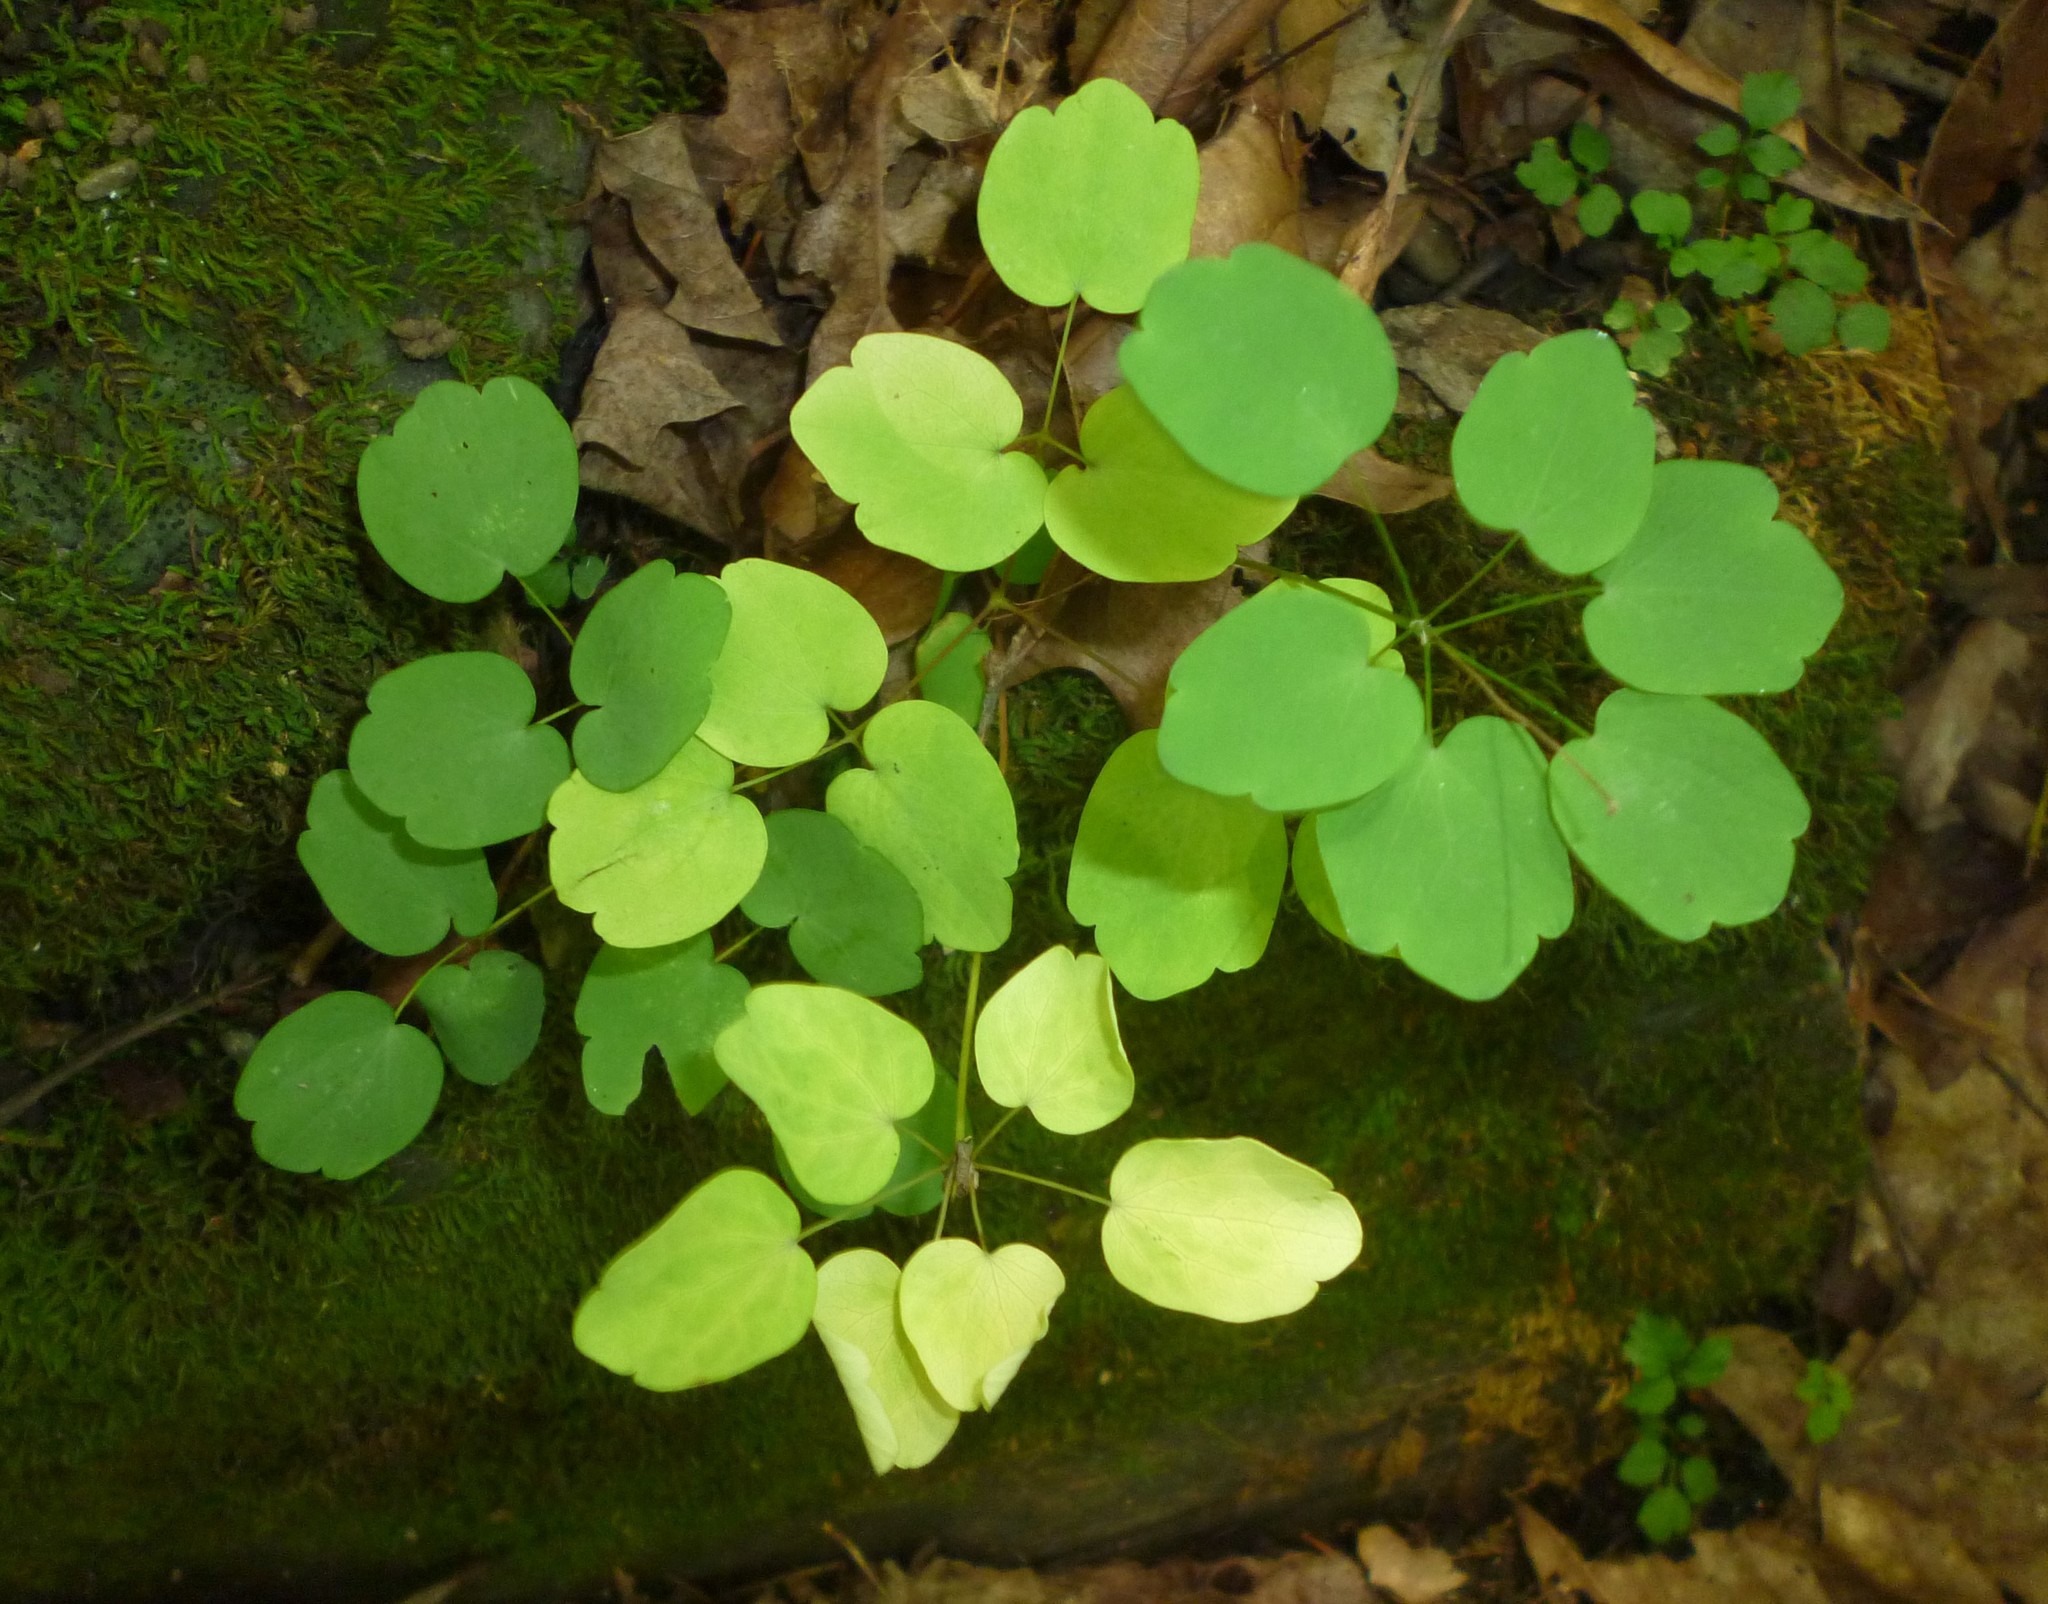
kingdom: Plantae
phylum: Tracheophyta
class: Magnoliopsida
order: Ranunculales
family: Ranunculaceae
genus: Thalictrum
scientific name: Thalictrum thalictroides
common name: Rue-anemone
